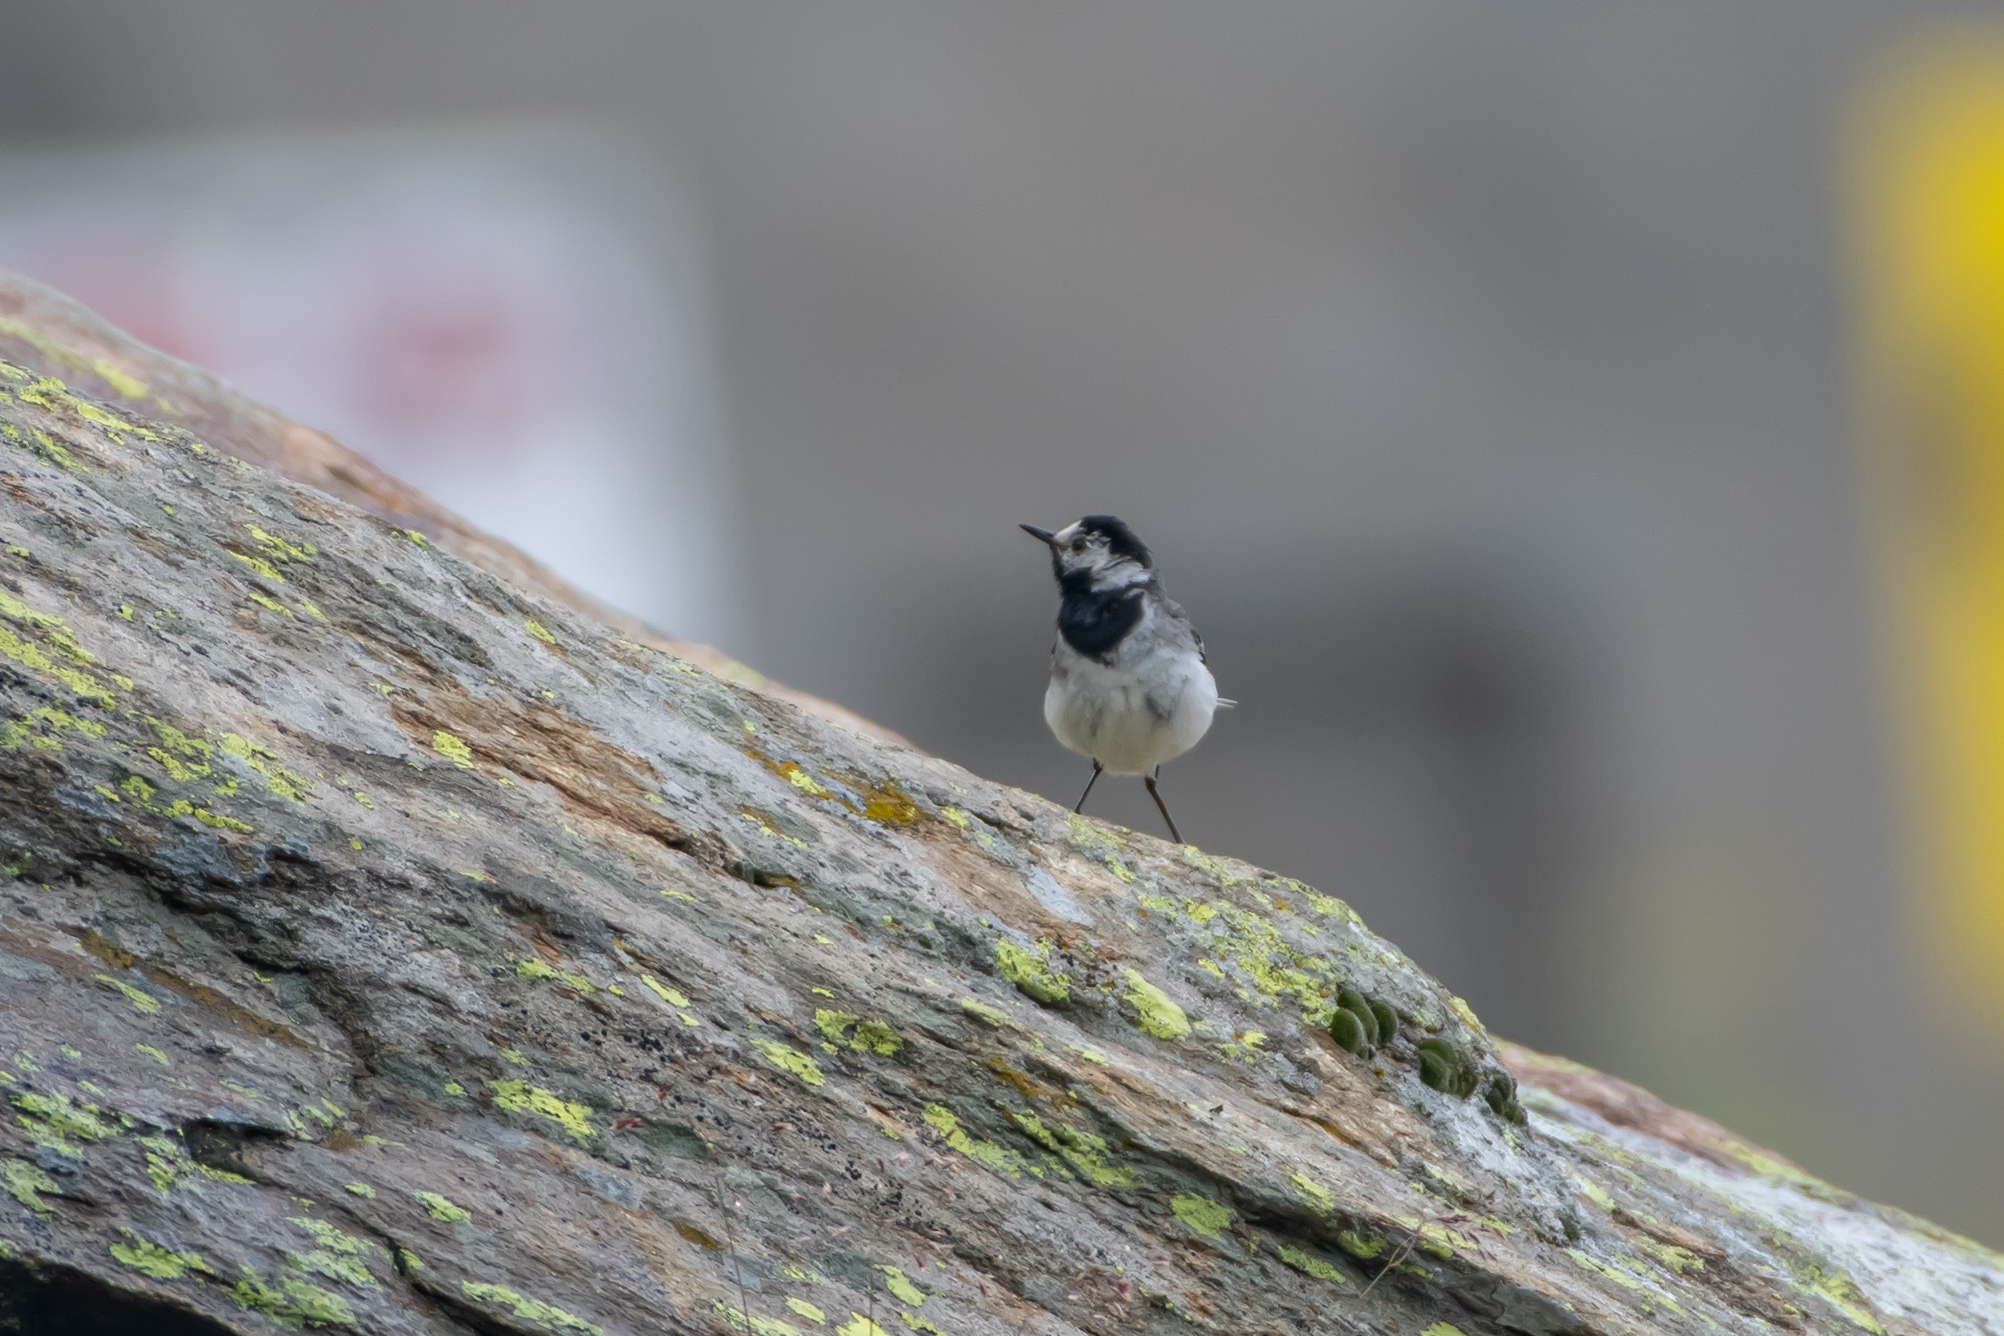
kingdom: Animalia
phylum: Chordata
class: Aves
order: Passeriformes
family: Motacillidae
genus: Motacilla
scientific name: Motacilla alba
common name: White wagtail
